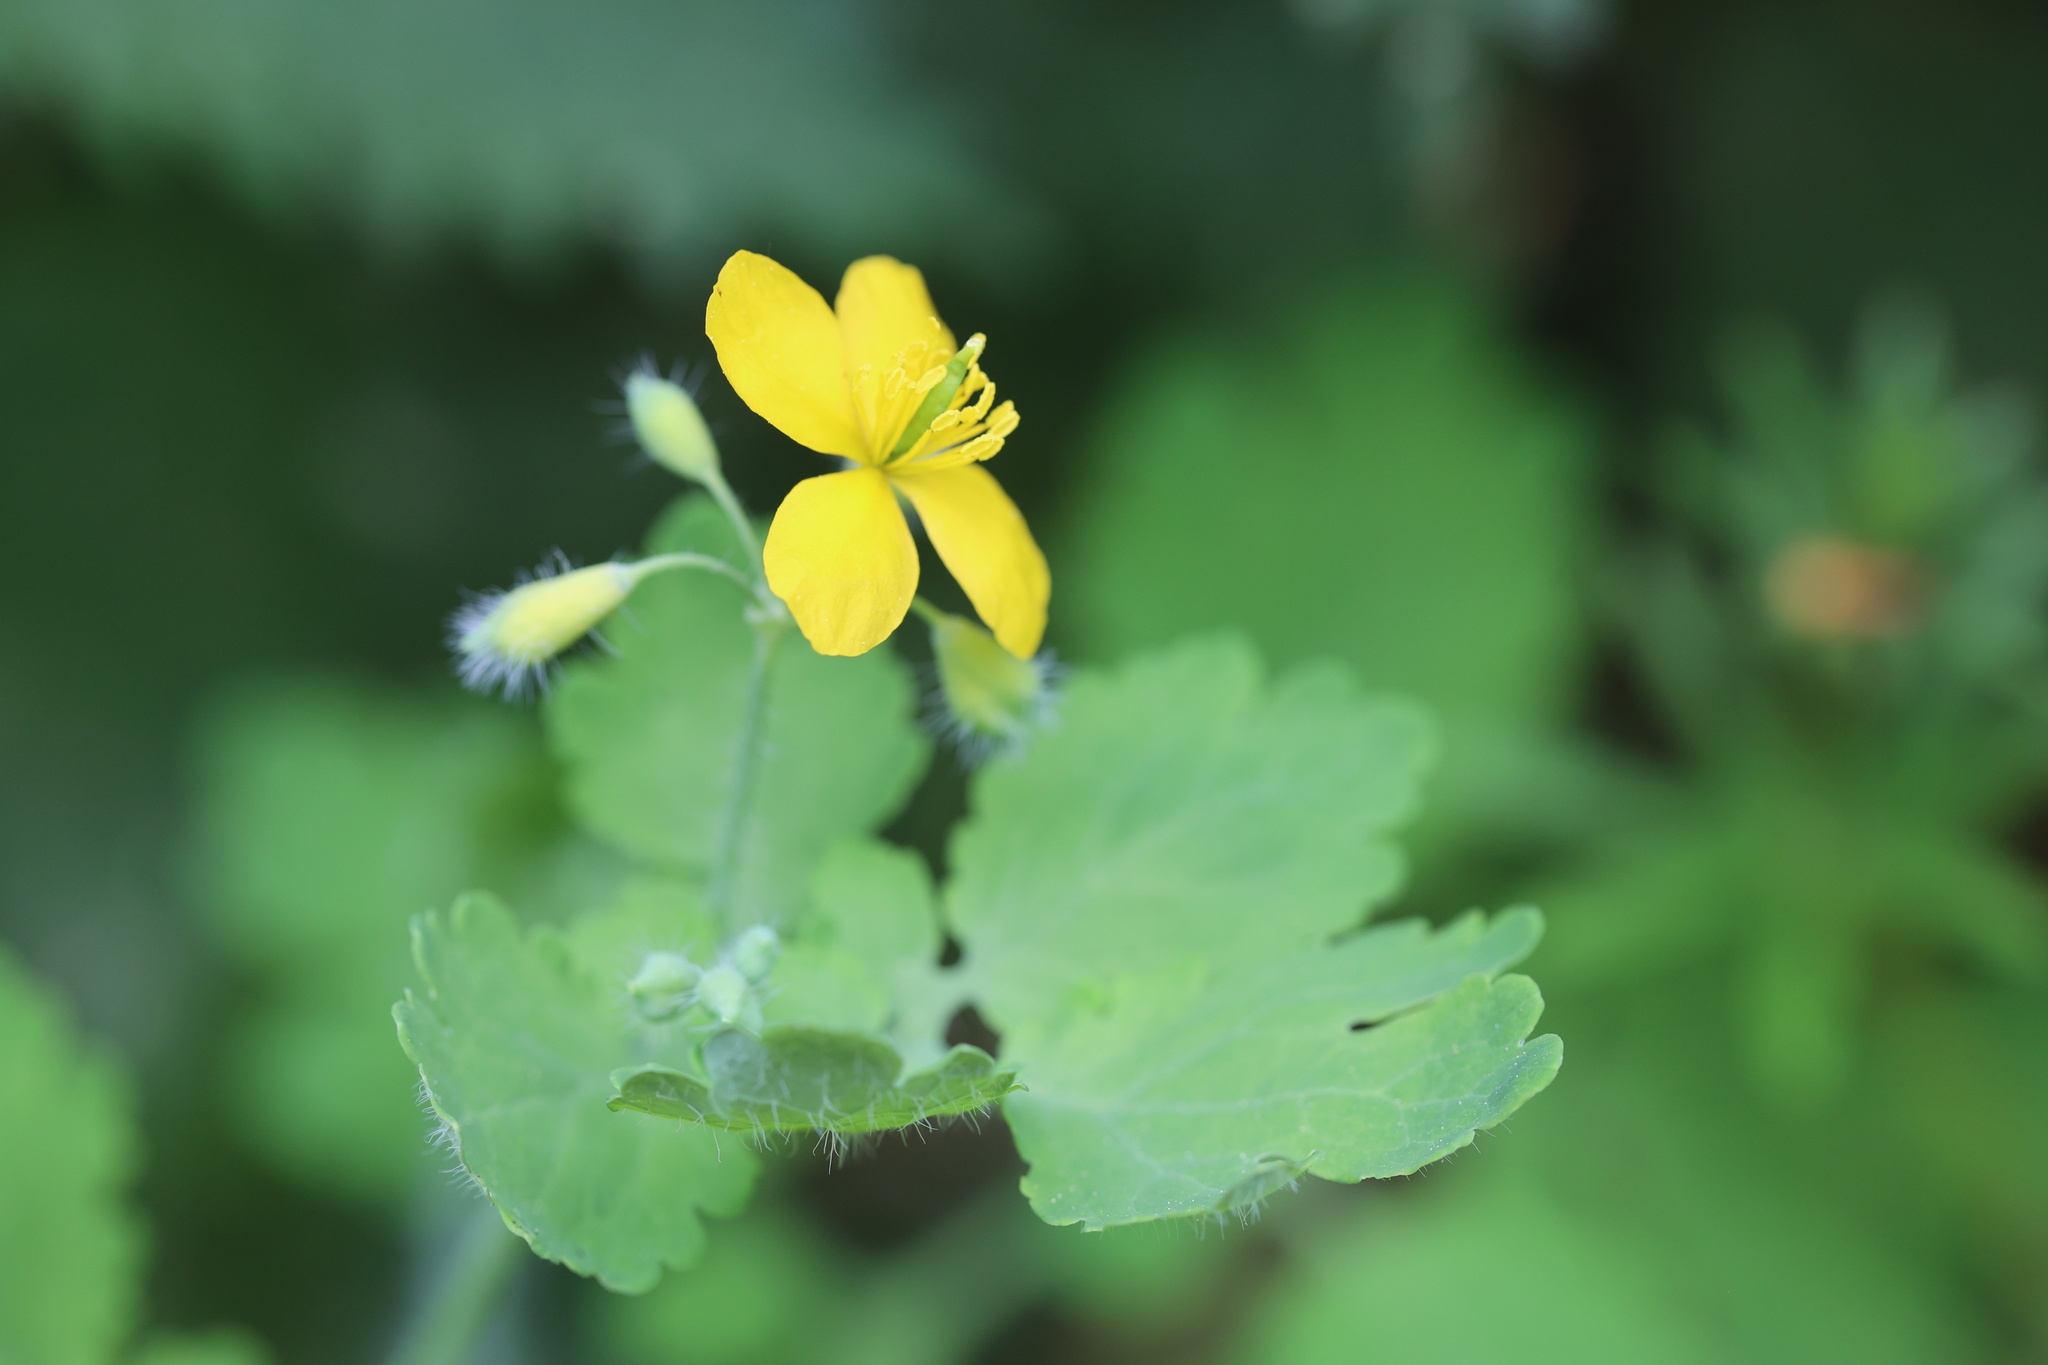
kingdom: Plantae
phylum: Tracheophyta
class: Magnoliopsida
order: Ranunculales
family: Papaveraceae
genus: Chelidonium
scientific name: Chelidonium majus
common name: Greater celandine
